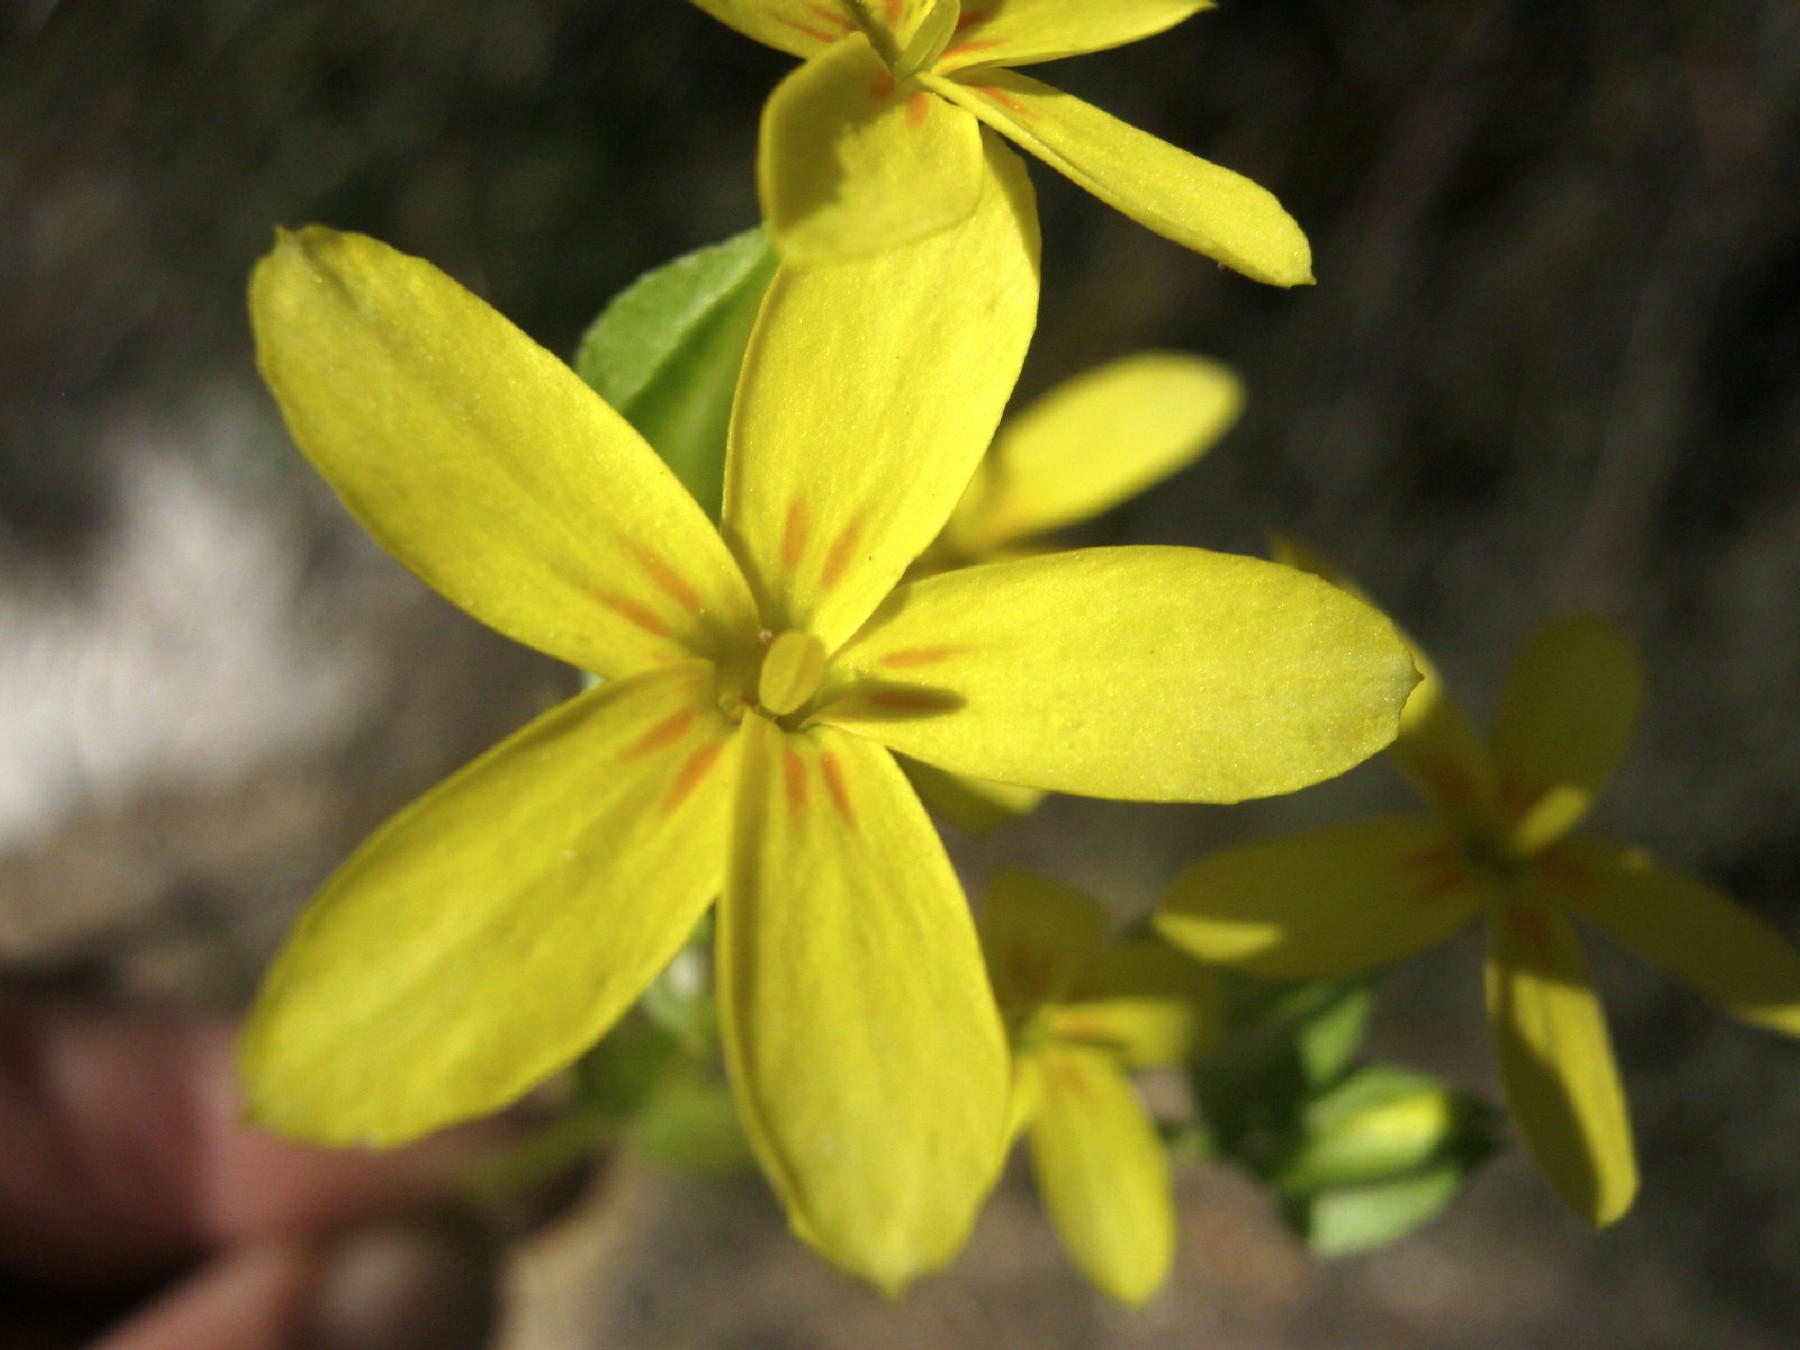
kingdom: Plantae
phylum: Tracheophyta
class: Magnoliopsida
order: Gentianales
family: Gentianaceae
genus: Sebaea
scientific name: Sebaea exacoides
